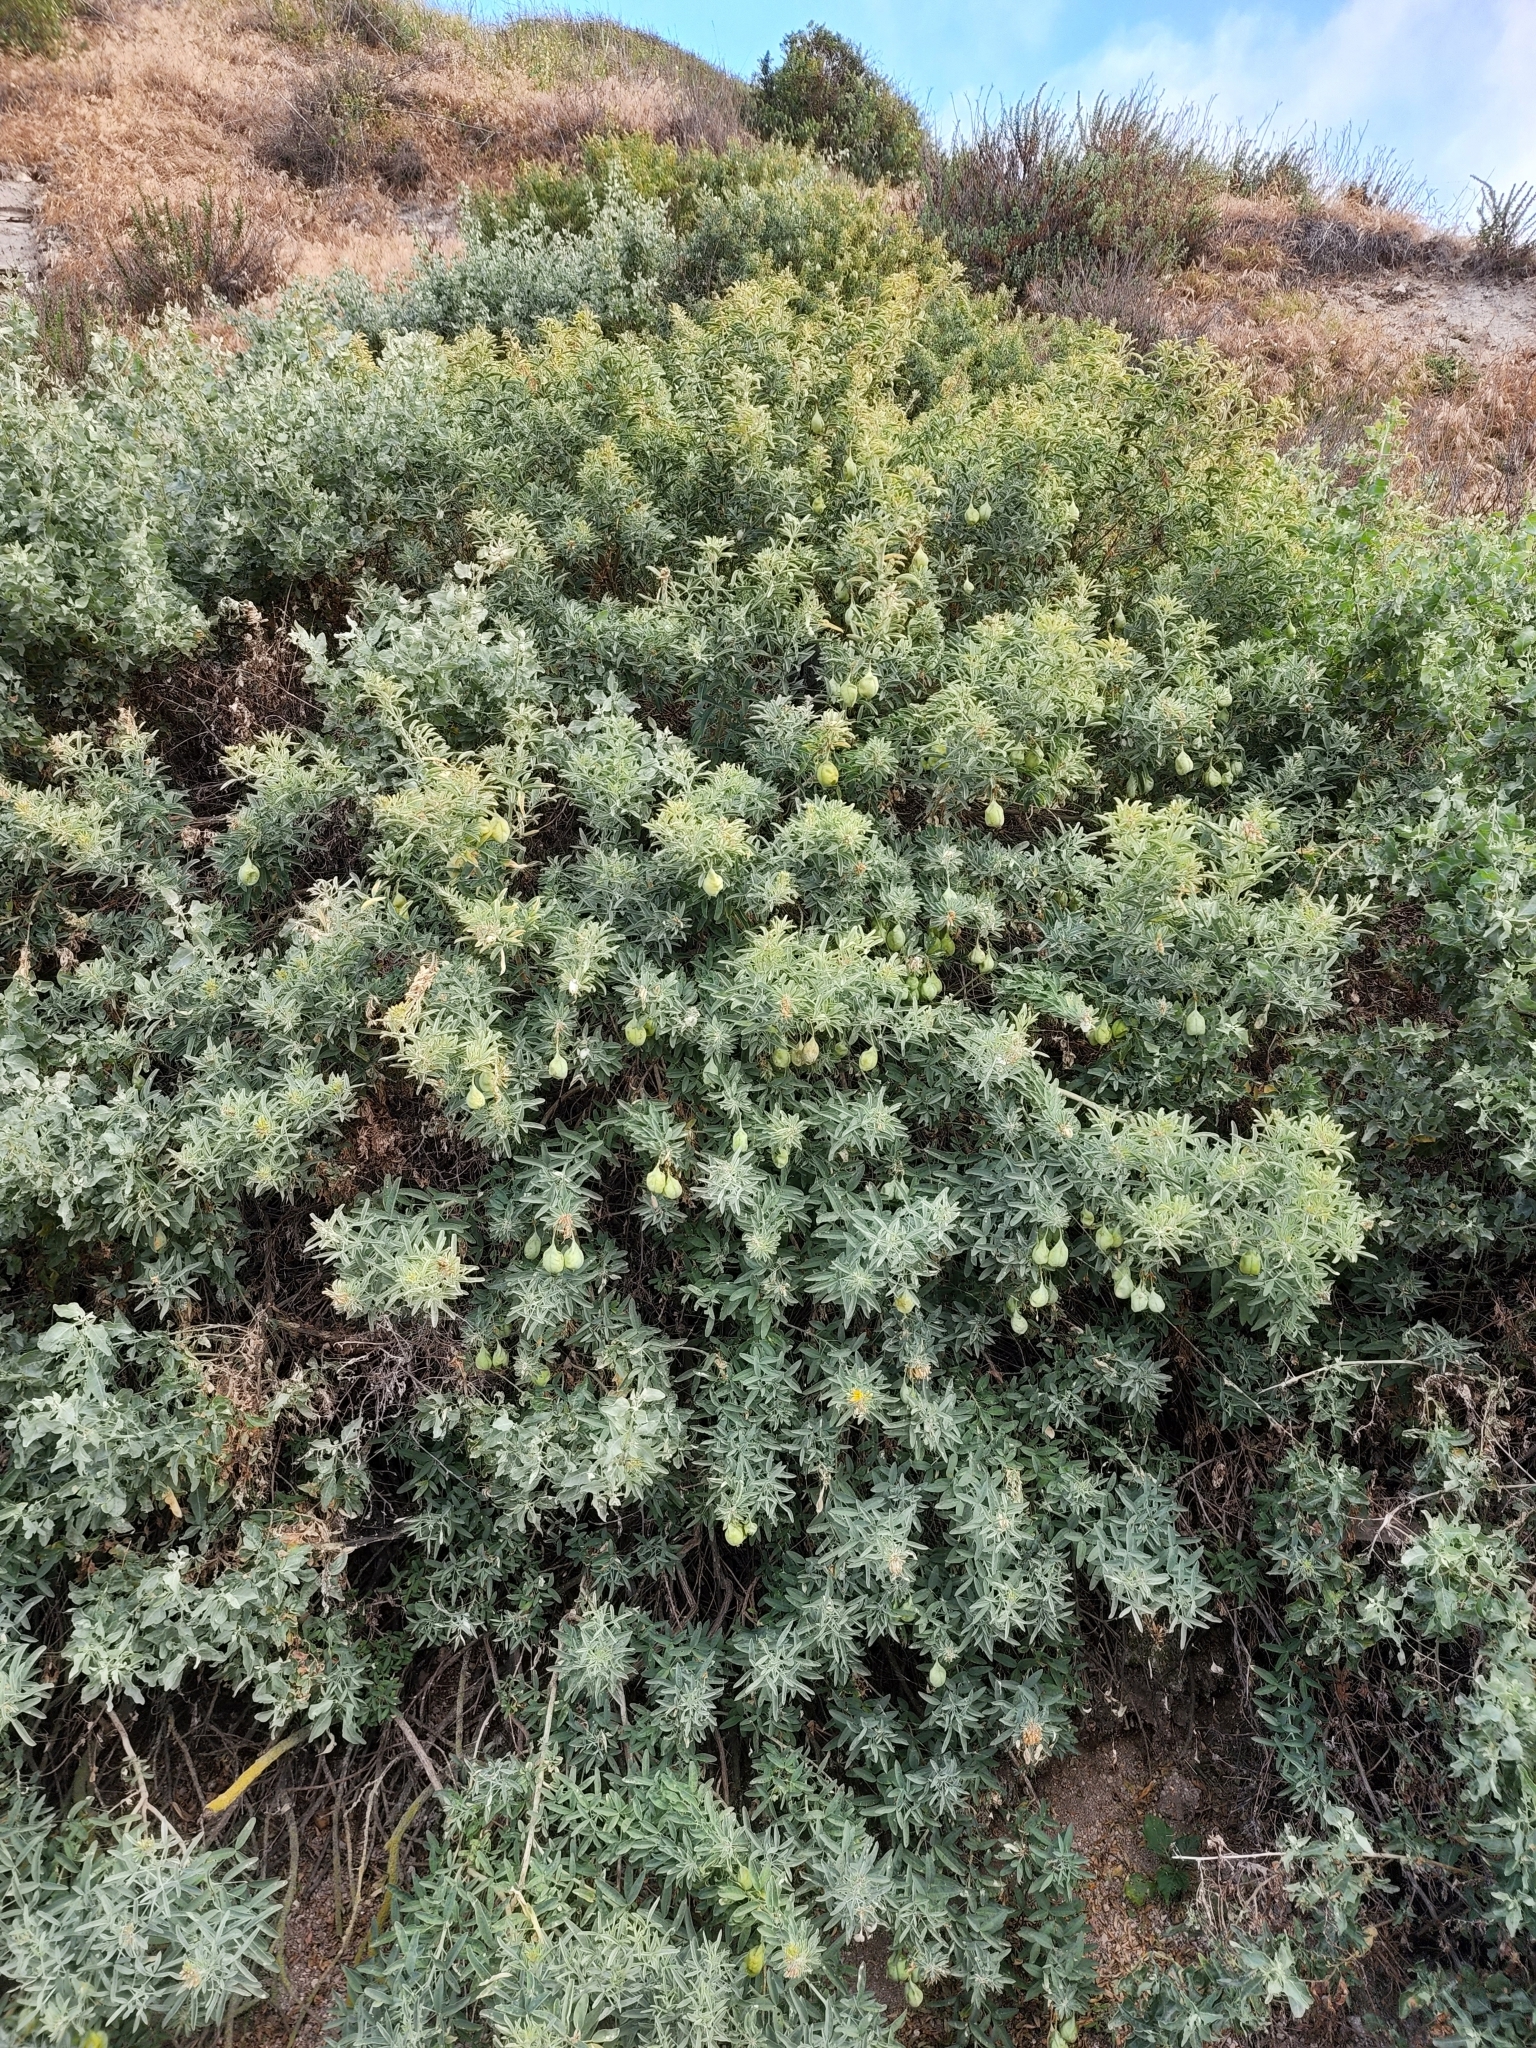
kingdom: Plantae
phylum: Tracheophyta
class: Magnoliopsida
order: Brassicales
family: Cleomaceae
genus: Cleomella
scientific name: Cleomella arborea
